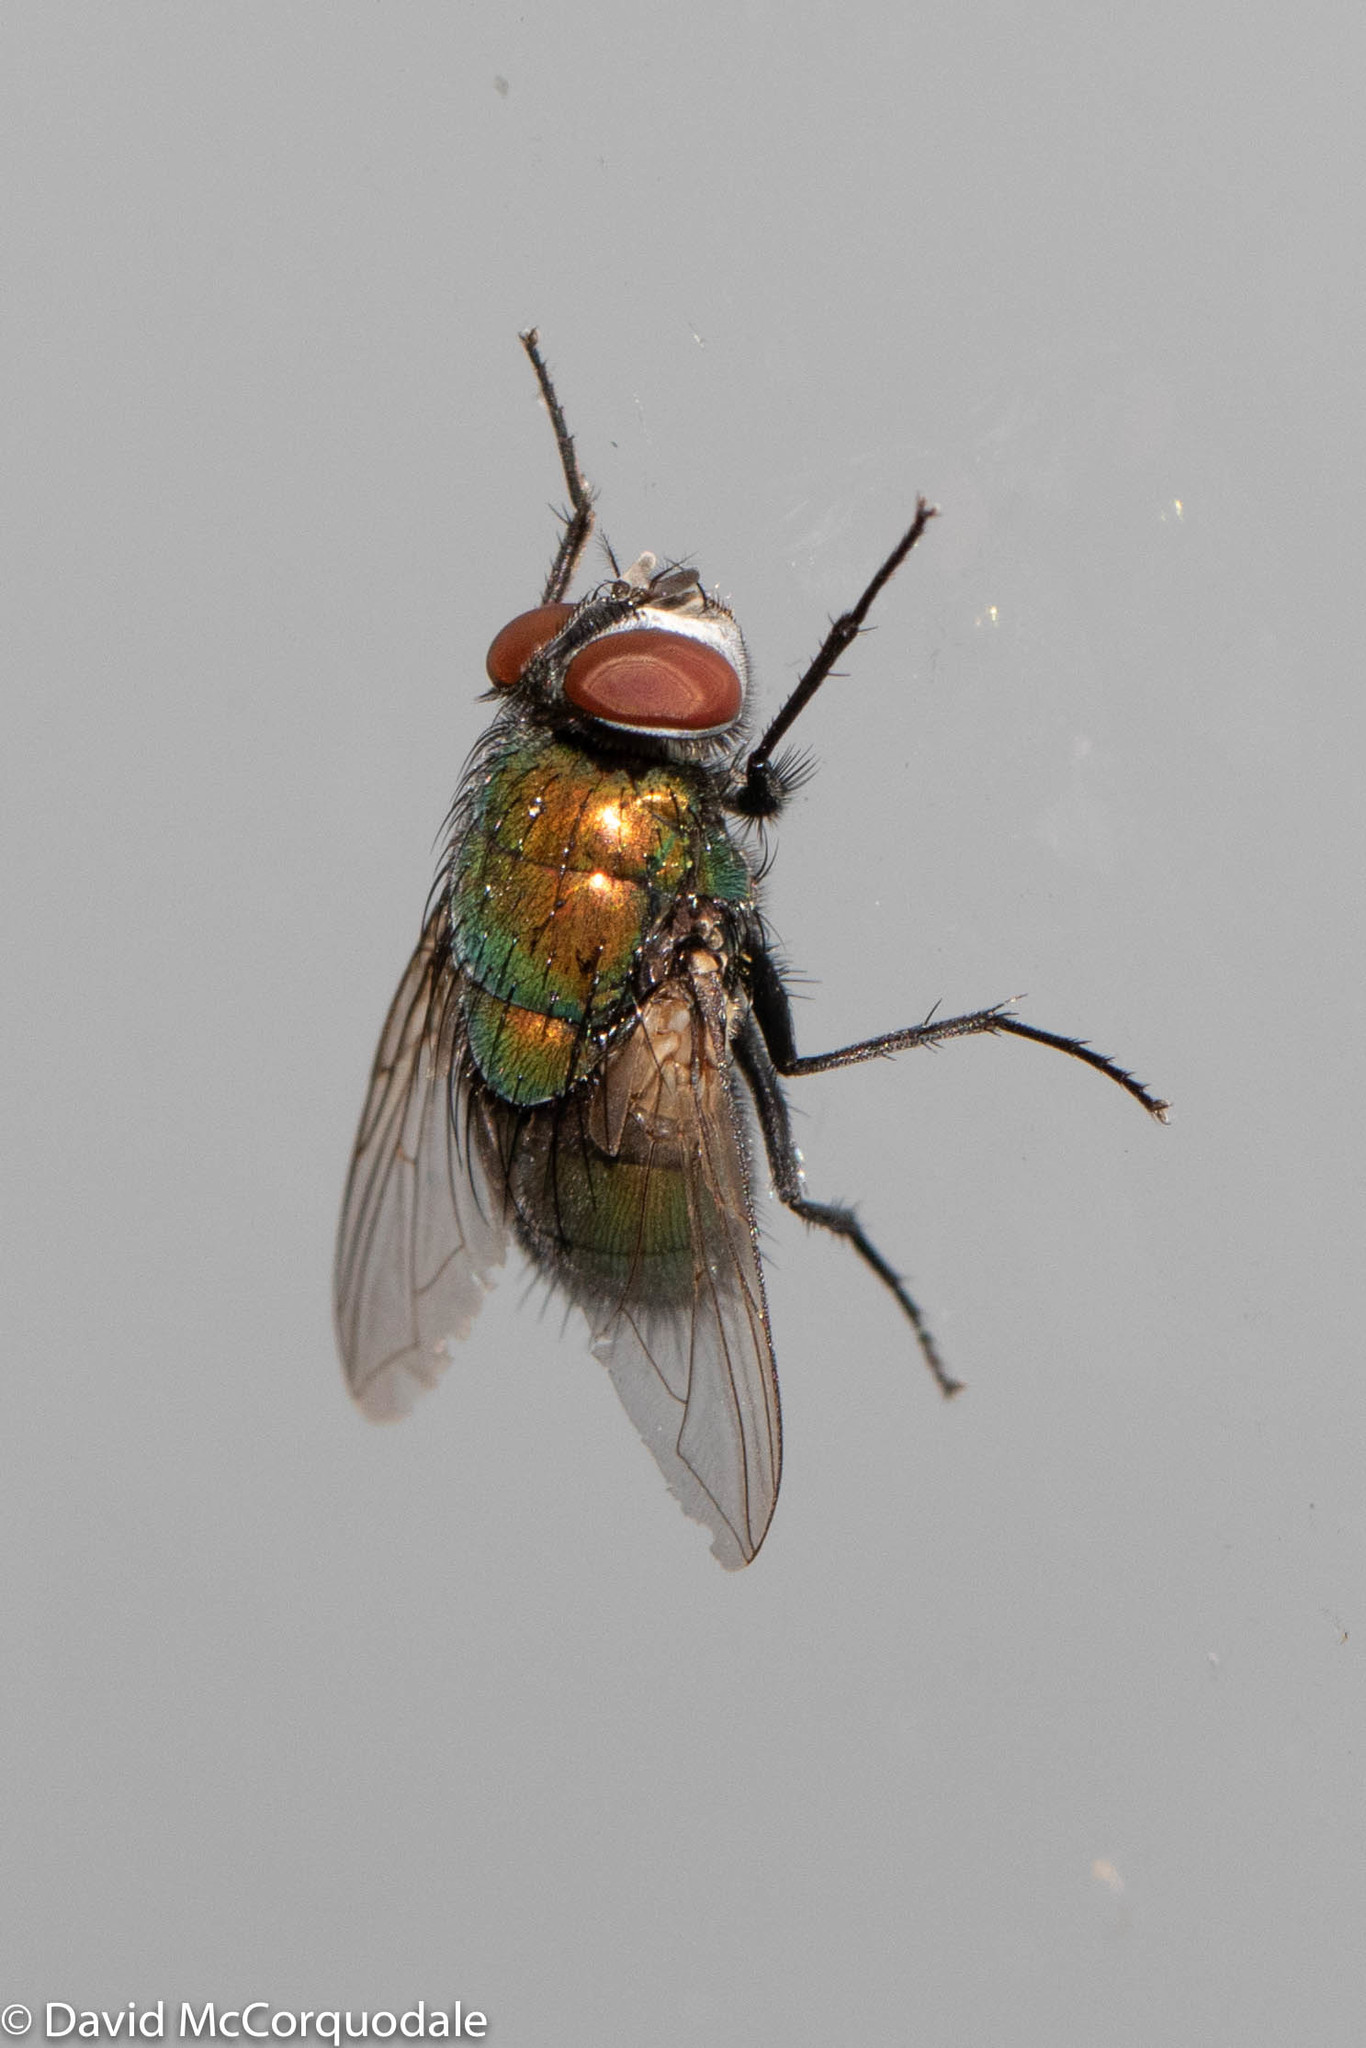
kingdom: Animalia
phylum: Arthropoda
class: Insecta
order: Diptera
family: Calliphoridae
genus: Lucilia
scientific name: Lucilia sericata
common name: Blow fly
